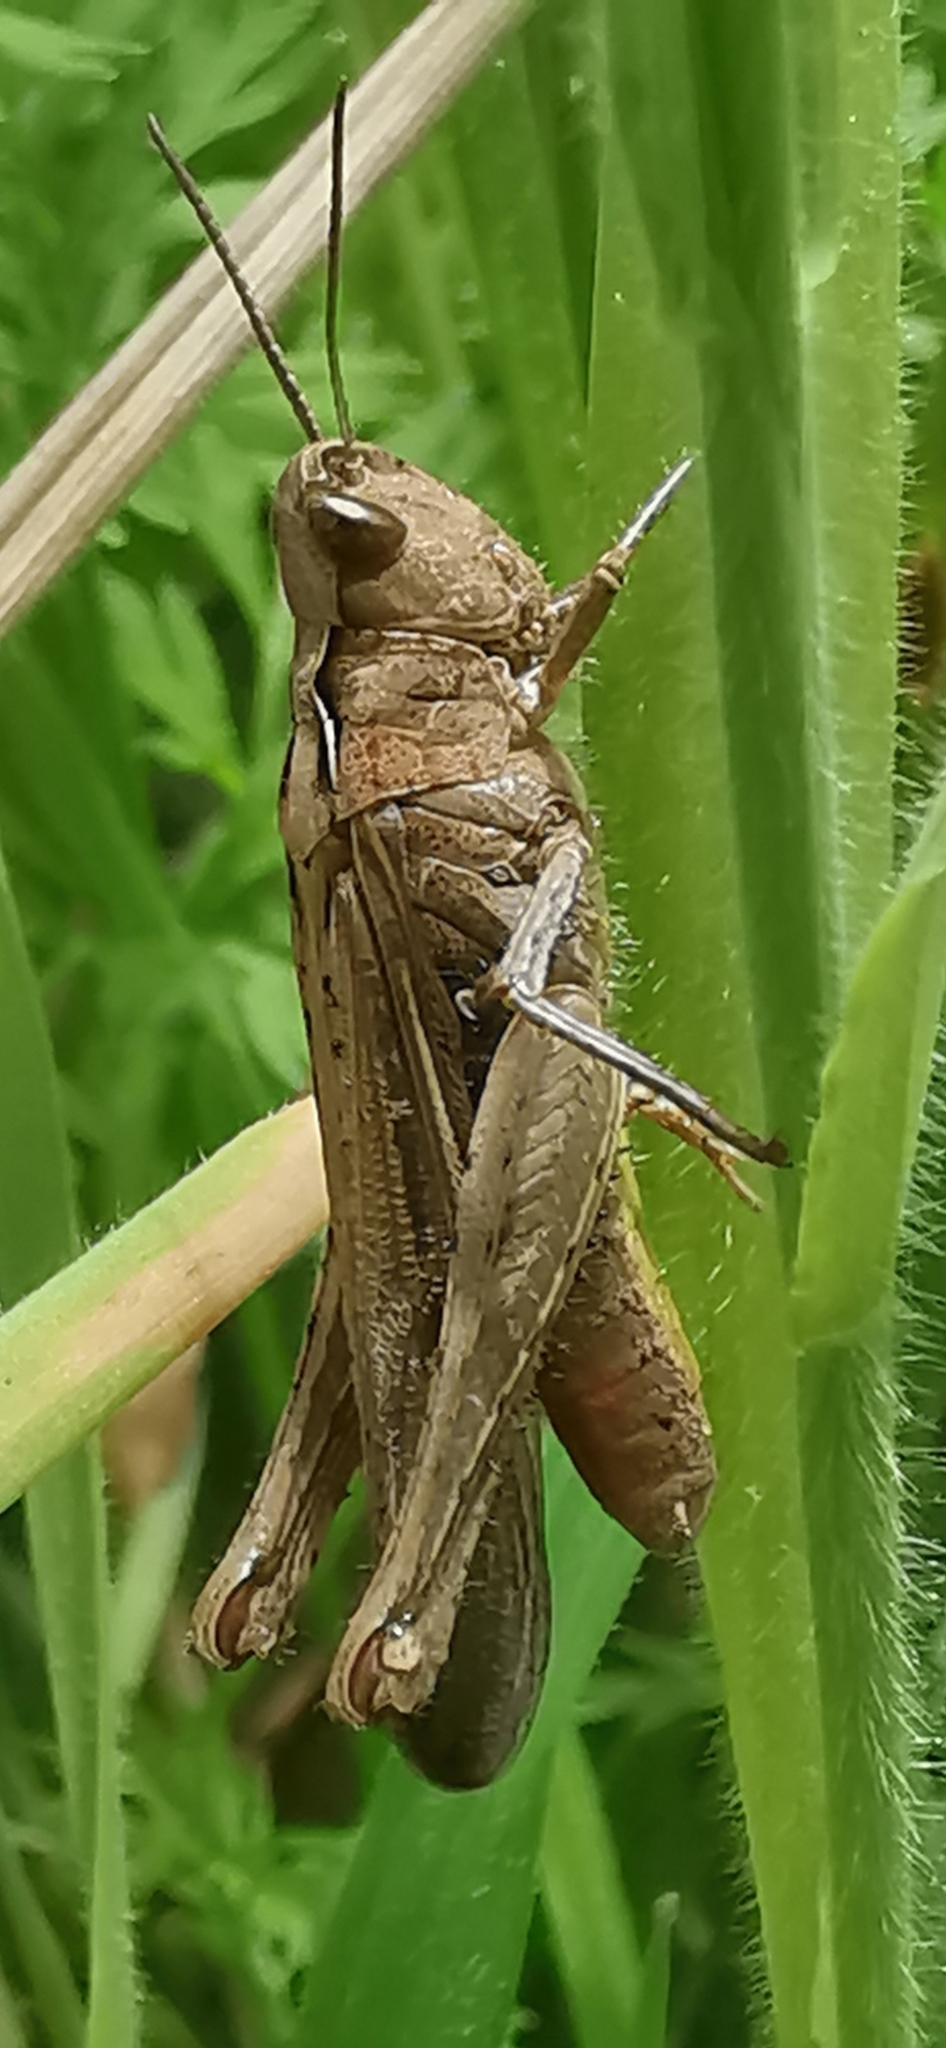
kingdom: Animalia
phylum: Arthropoda
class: Insecta
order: Orthoptera
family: Acrididae
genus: Chorthippus
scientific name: Chorthippus brunneus
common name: Field grasshopper
